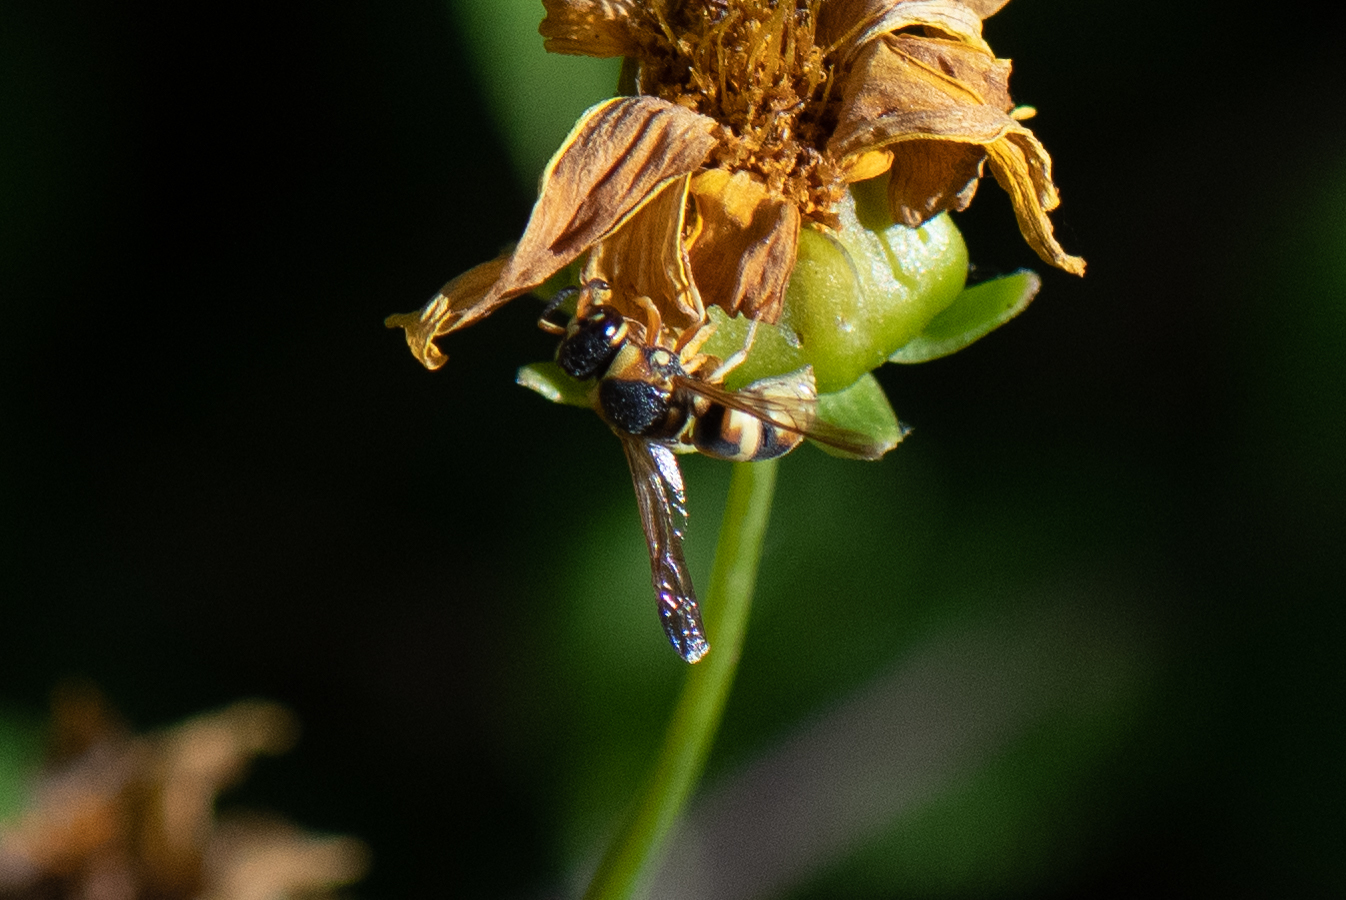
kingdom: Animalia
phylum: Arthropoda
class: Insecta
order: Hymenoptera
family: Eumenidae
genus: Euodynerus
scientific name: Euodynerus
